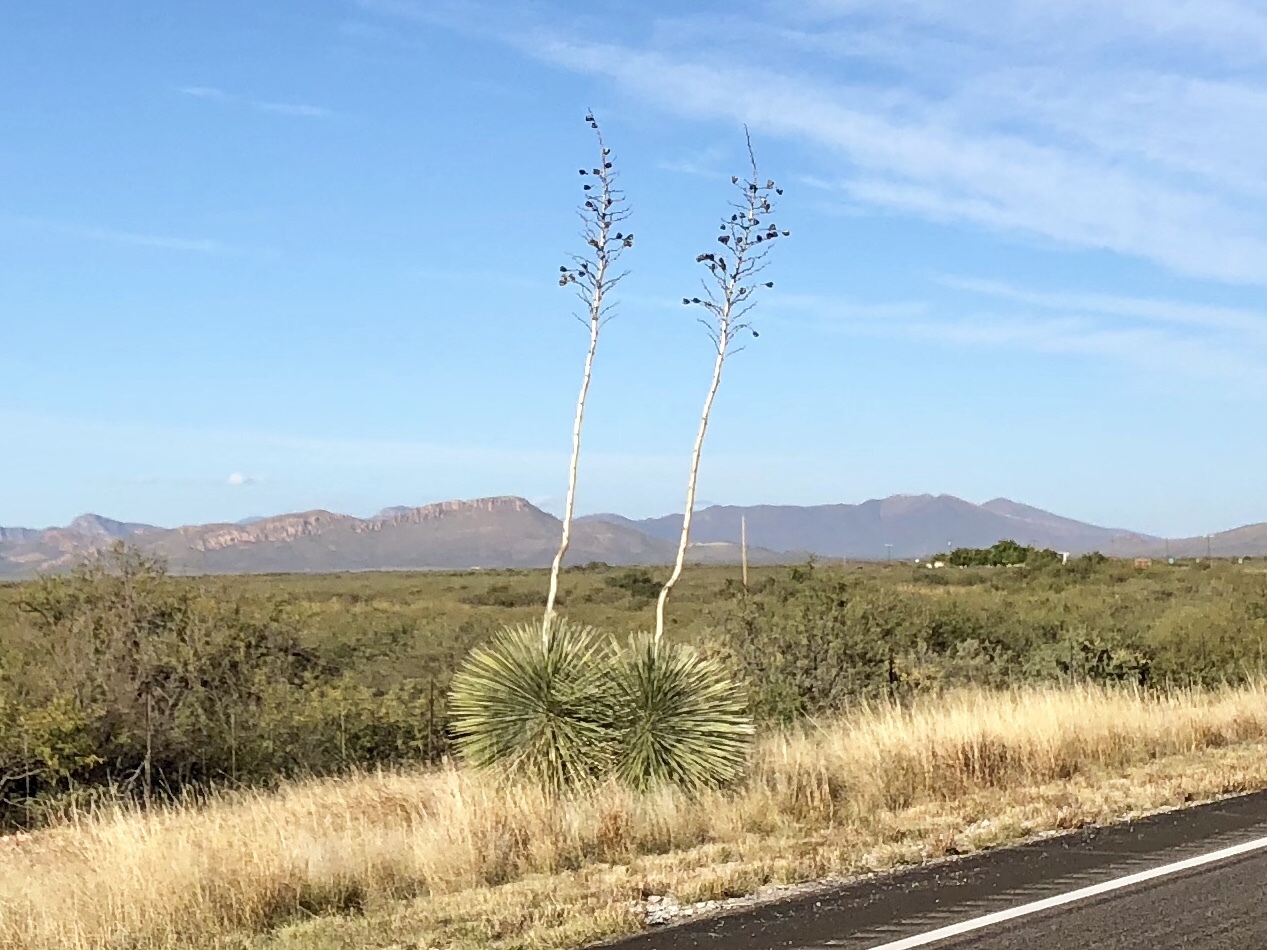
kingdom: Plantae
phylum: Tracheophyta
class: Liliopsida
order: Asparagales
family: Asparagaceae
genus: Yucca
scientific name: Yucca elata
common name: Palmella
